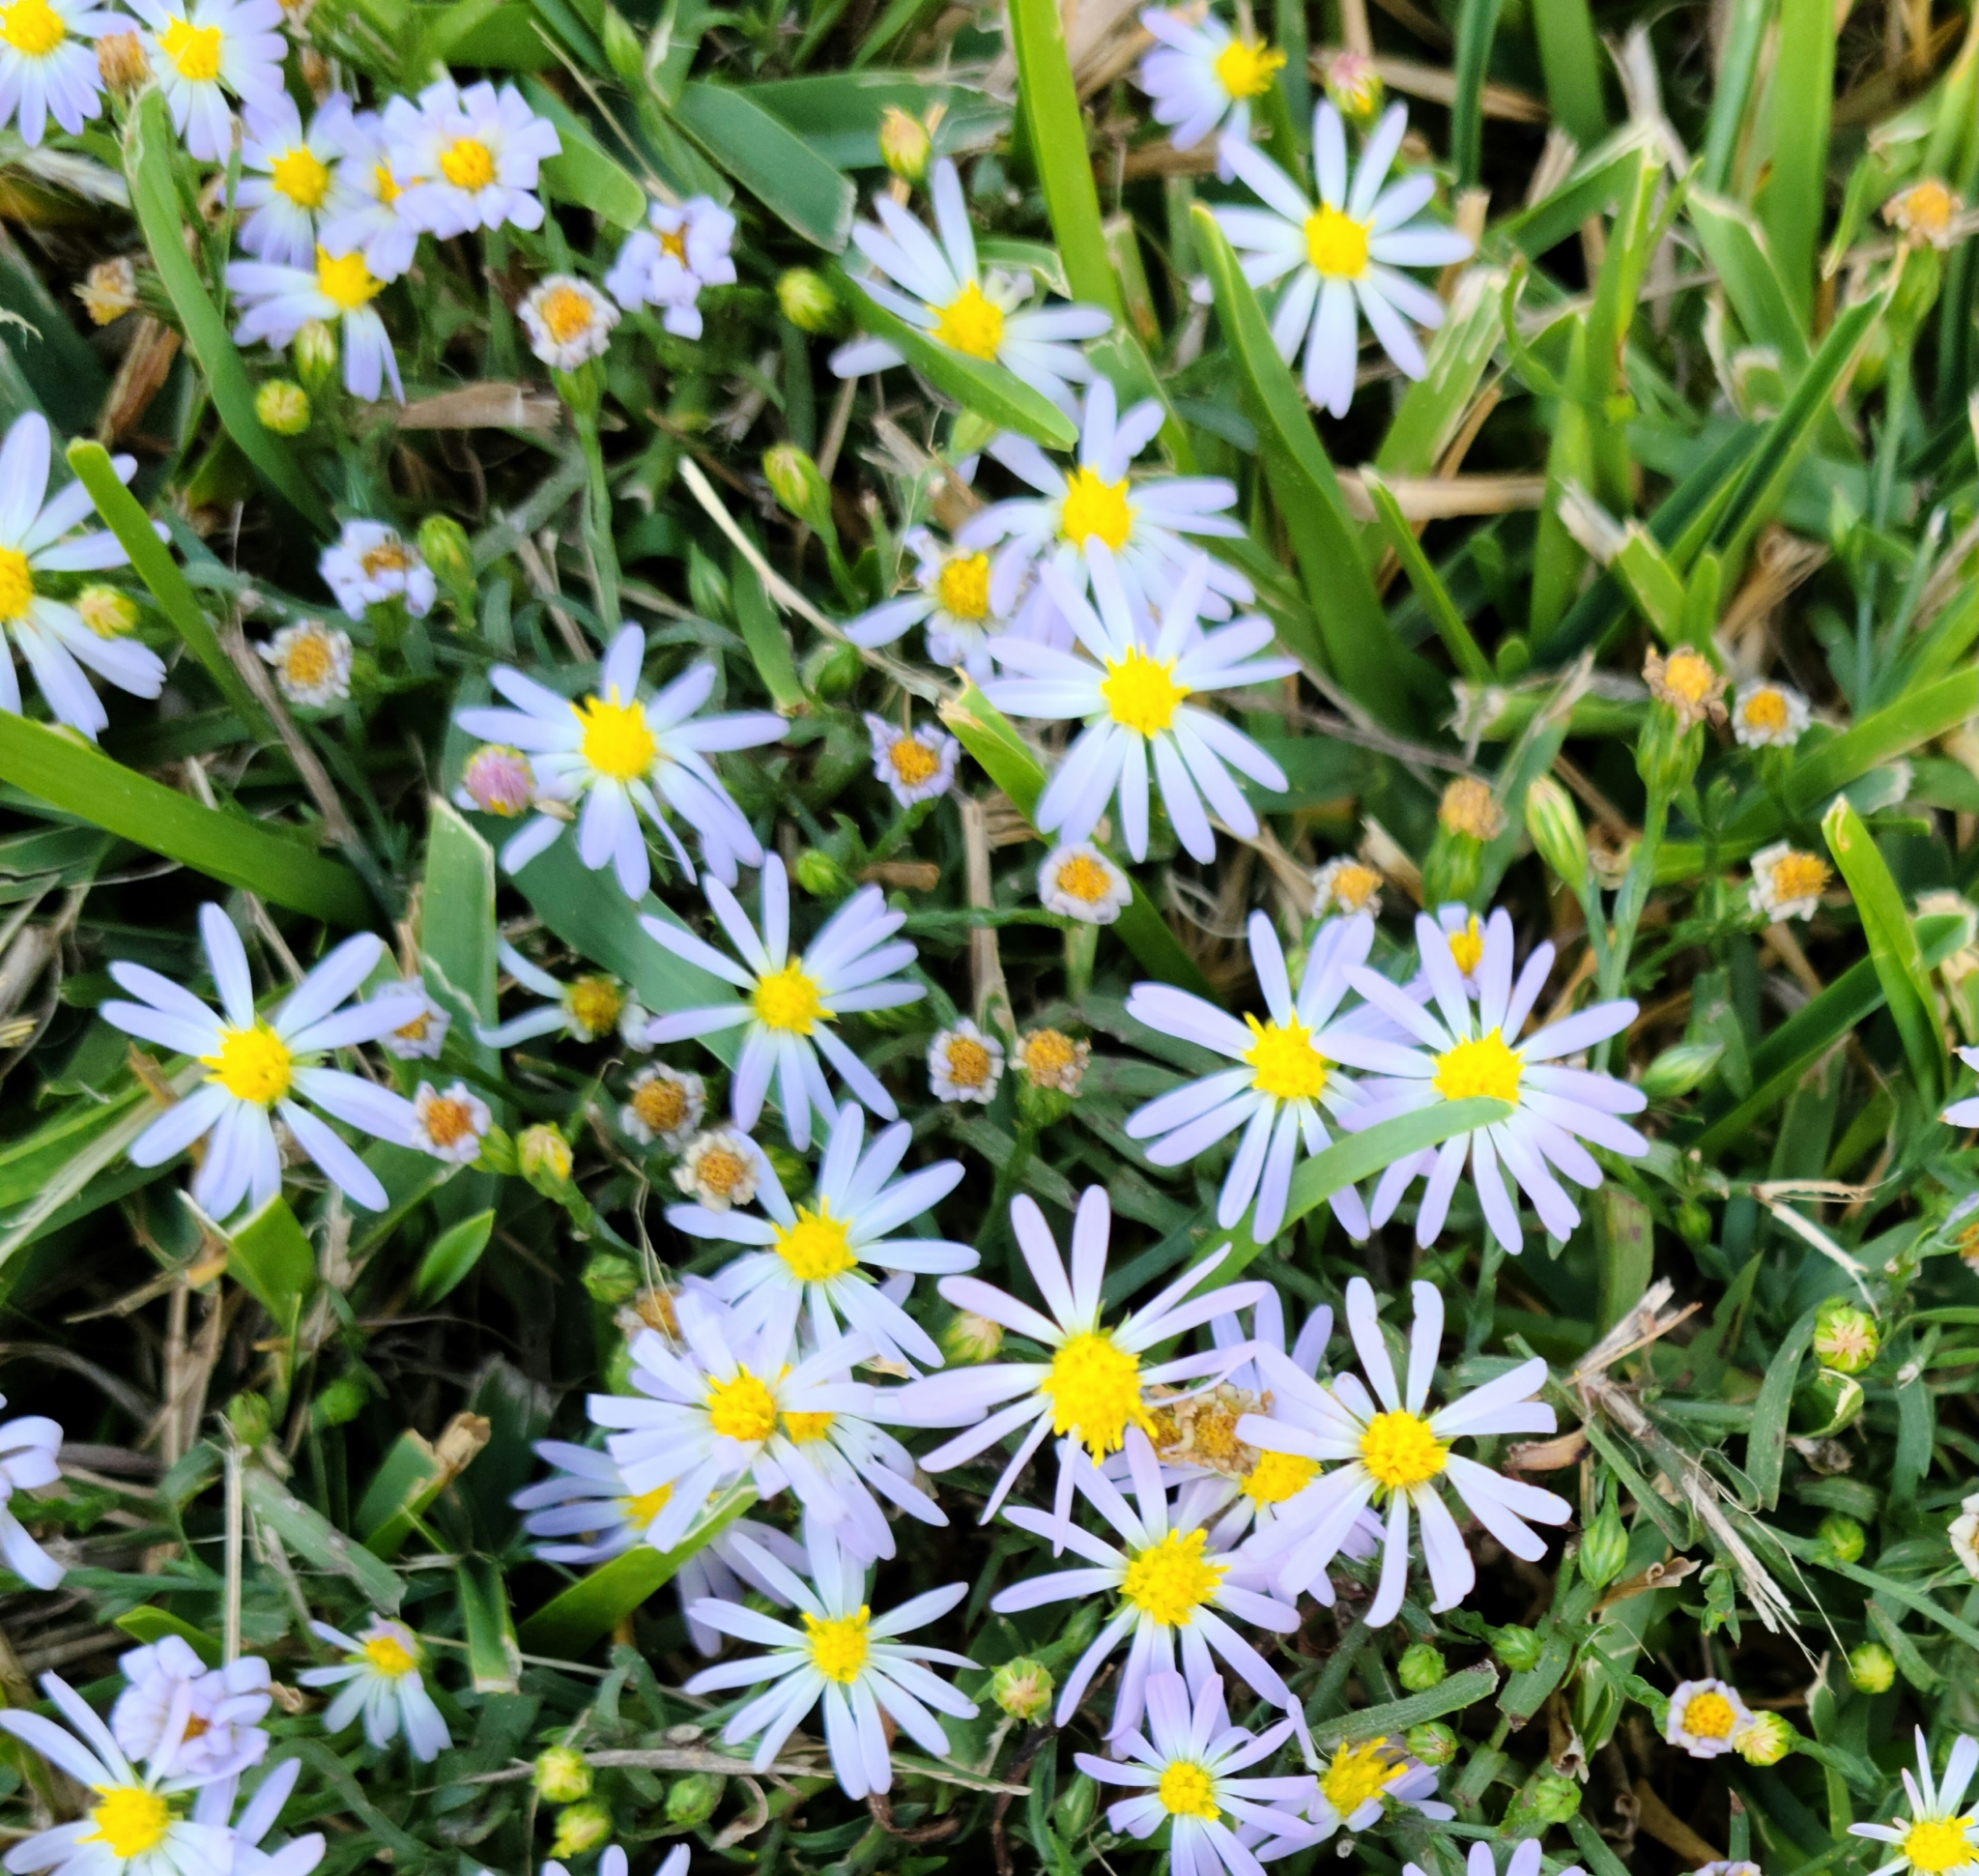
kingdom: Plantae
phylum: Tracheophyta
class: Magnoliopsida
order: Asterales
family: Asteraceae
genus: Symphyotrichum
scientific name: Symphyotrichum divaricatum
